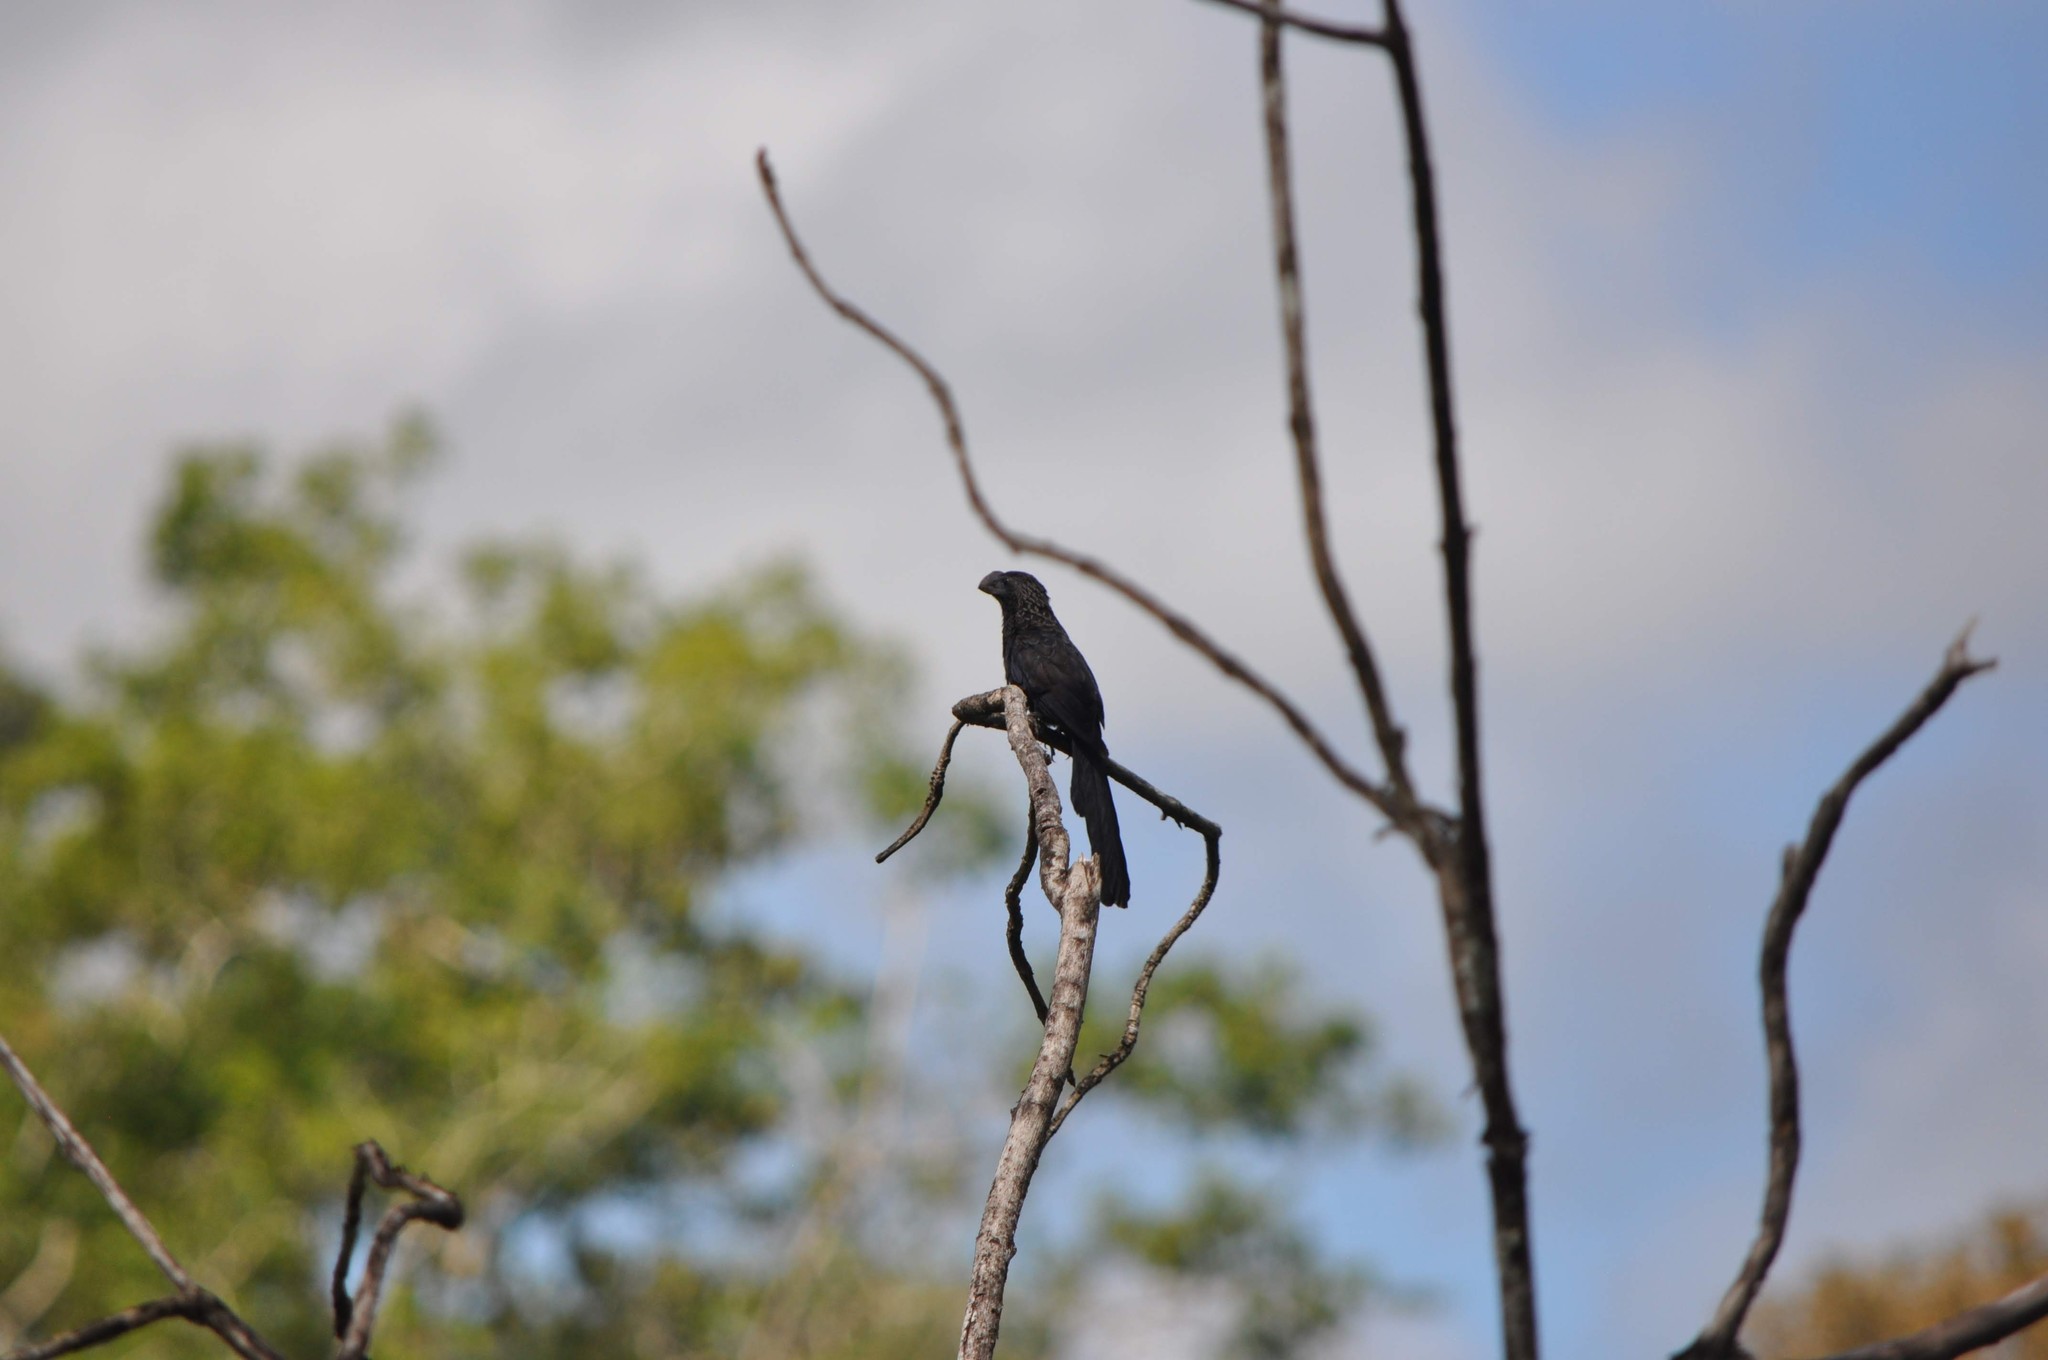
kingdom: Animalia
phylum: Chordata
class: Aves
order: Cuculiformes
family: Cuculidae
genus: Crotophaga
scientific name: Crotophaga ani
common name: Smooth-billed ani
